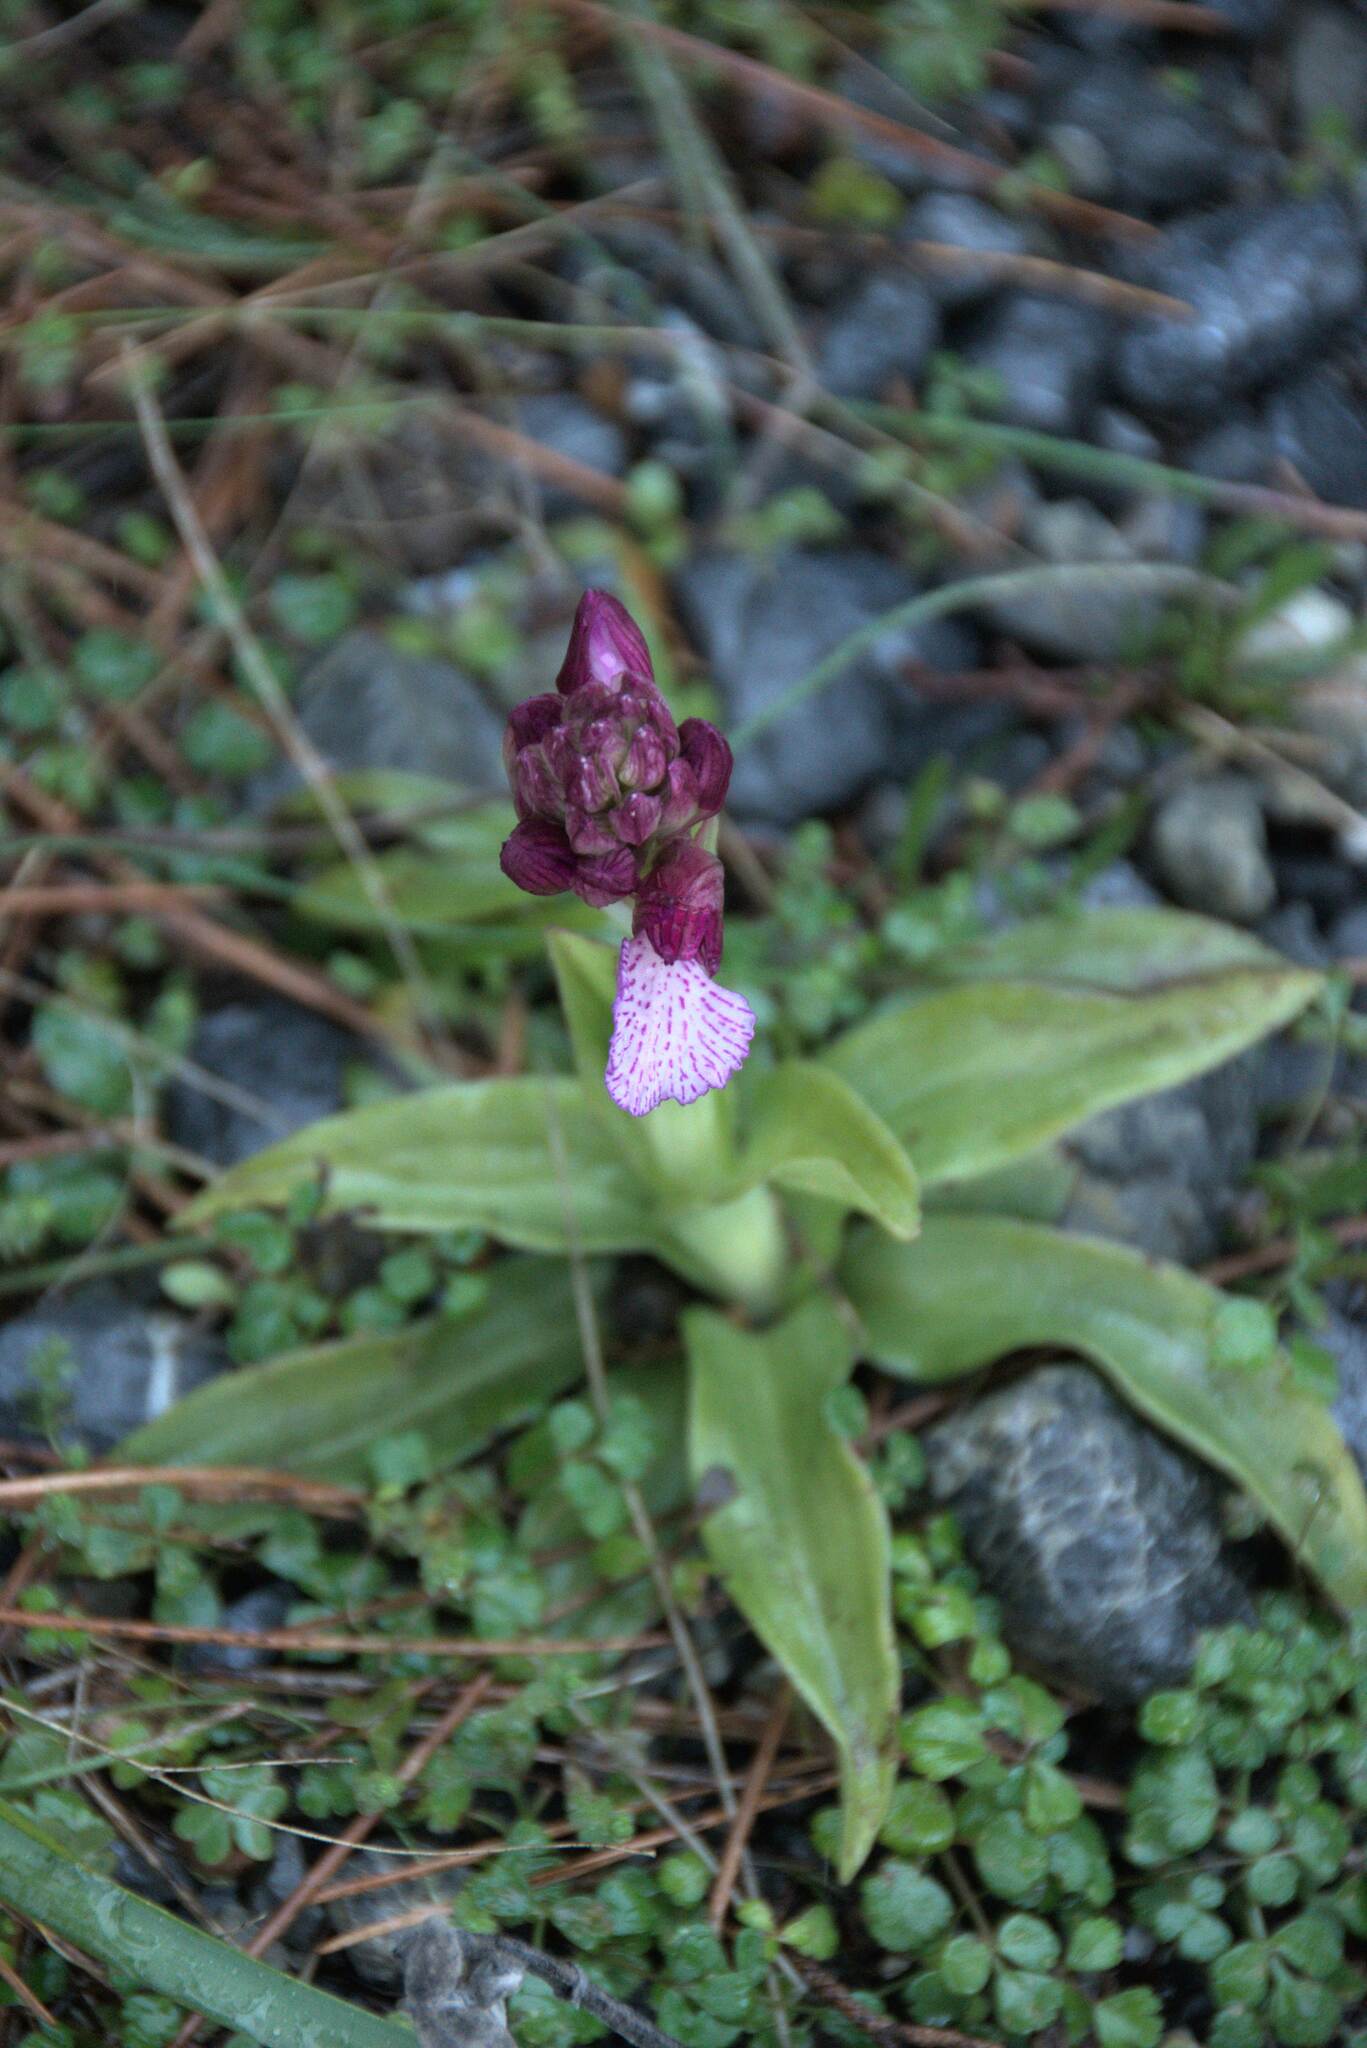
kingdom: Plantae
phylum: Tracheophyta
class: Liliopsida
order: Asparagales
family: Orchidaceae
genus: Anacamptis
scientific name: Anacamptis papilionacea
